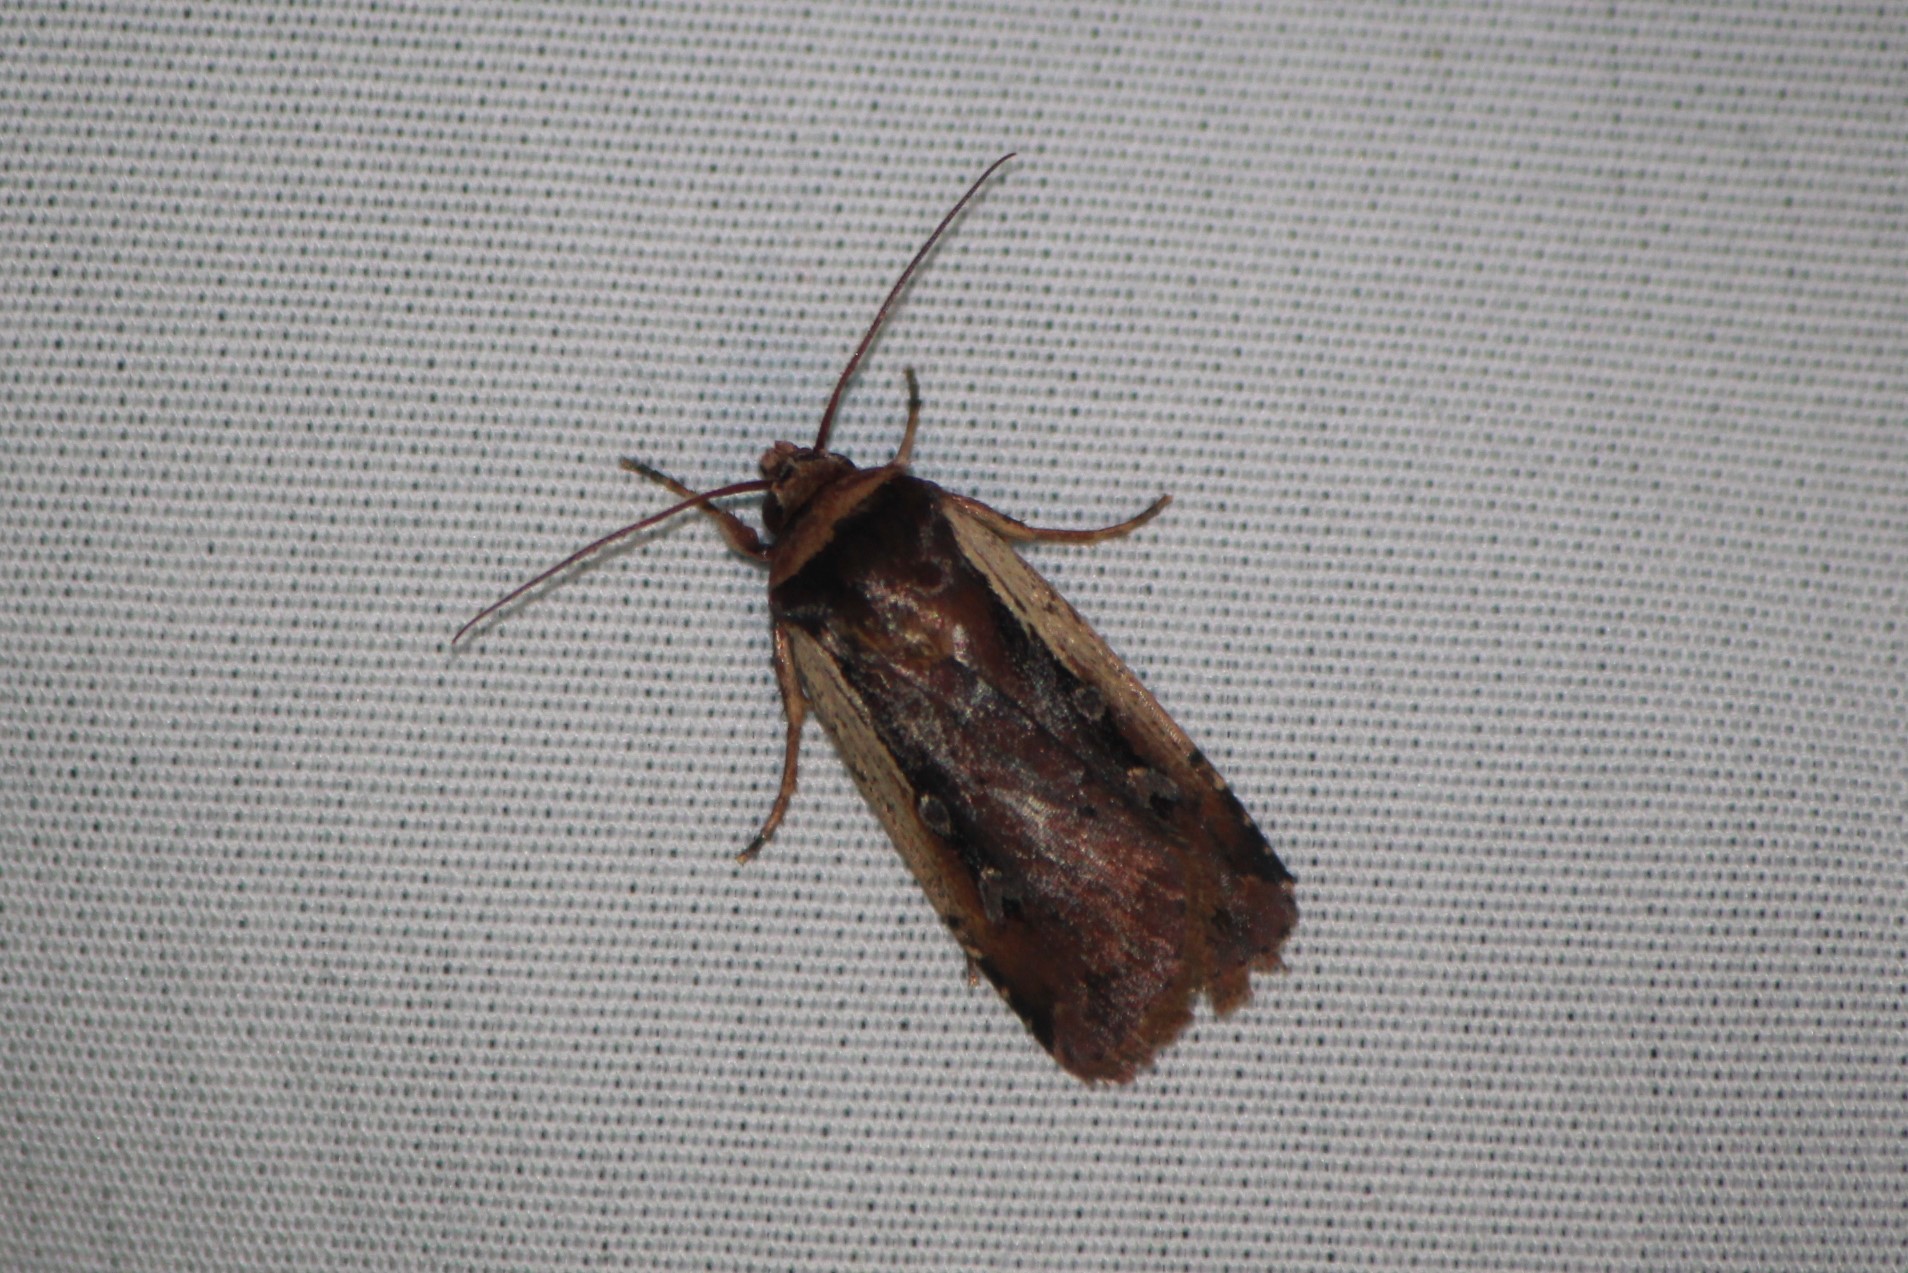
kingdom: Animalia
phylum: Arthropoda
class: Insecta
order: Lepidoptera
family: Noctuidae
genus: Ochropleura
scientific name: Ochropleura implecta
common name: Flame-shouldered dart
